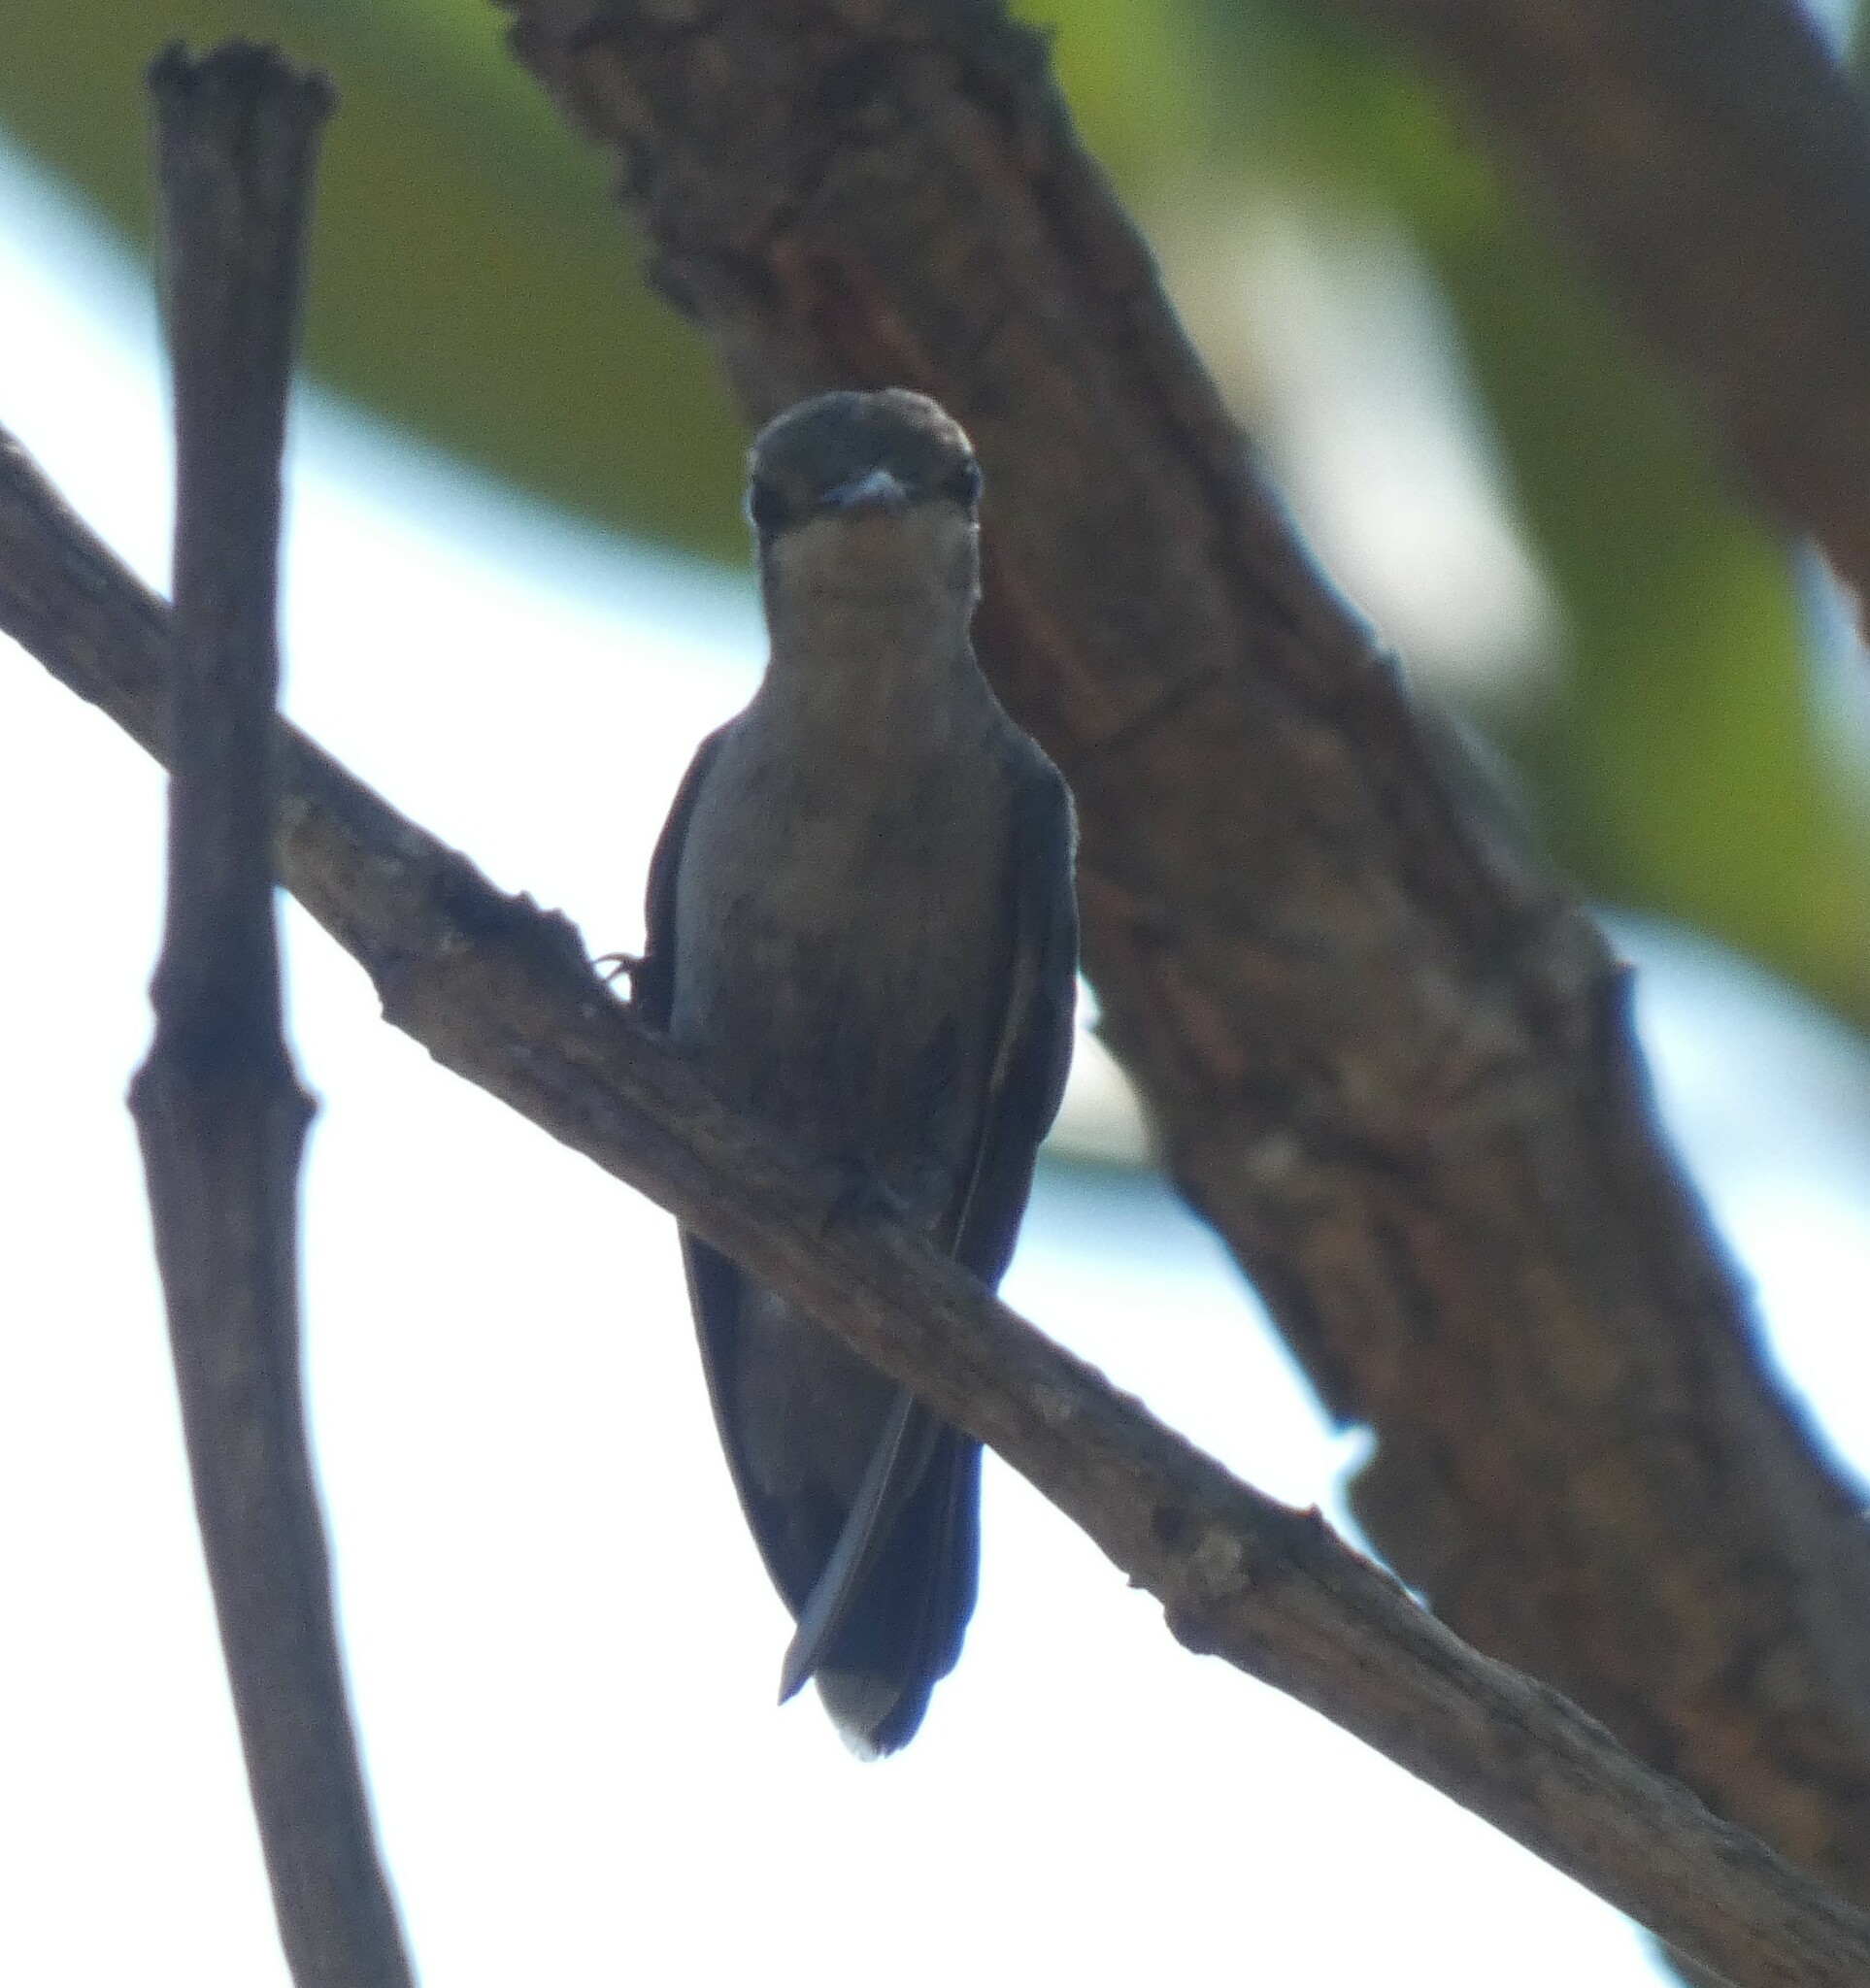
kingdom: Animalia
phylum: Chordata
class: Aves
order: Apodiformes
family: Trochilidae
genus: Chlorostilbon
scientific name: Chlorostilbon lucidus
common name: Glittering-bellied emerald
